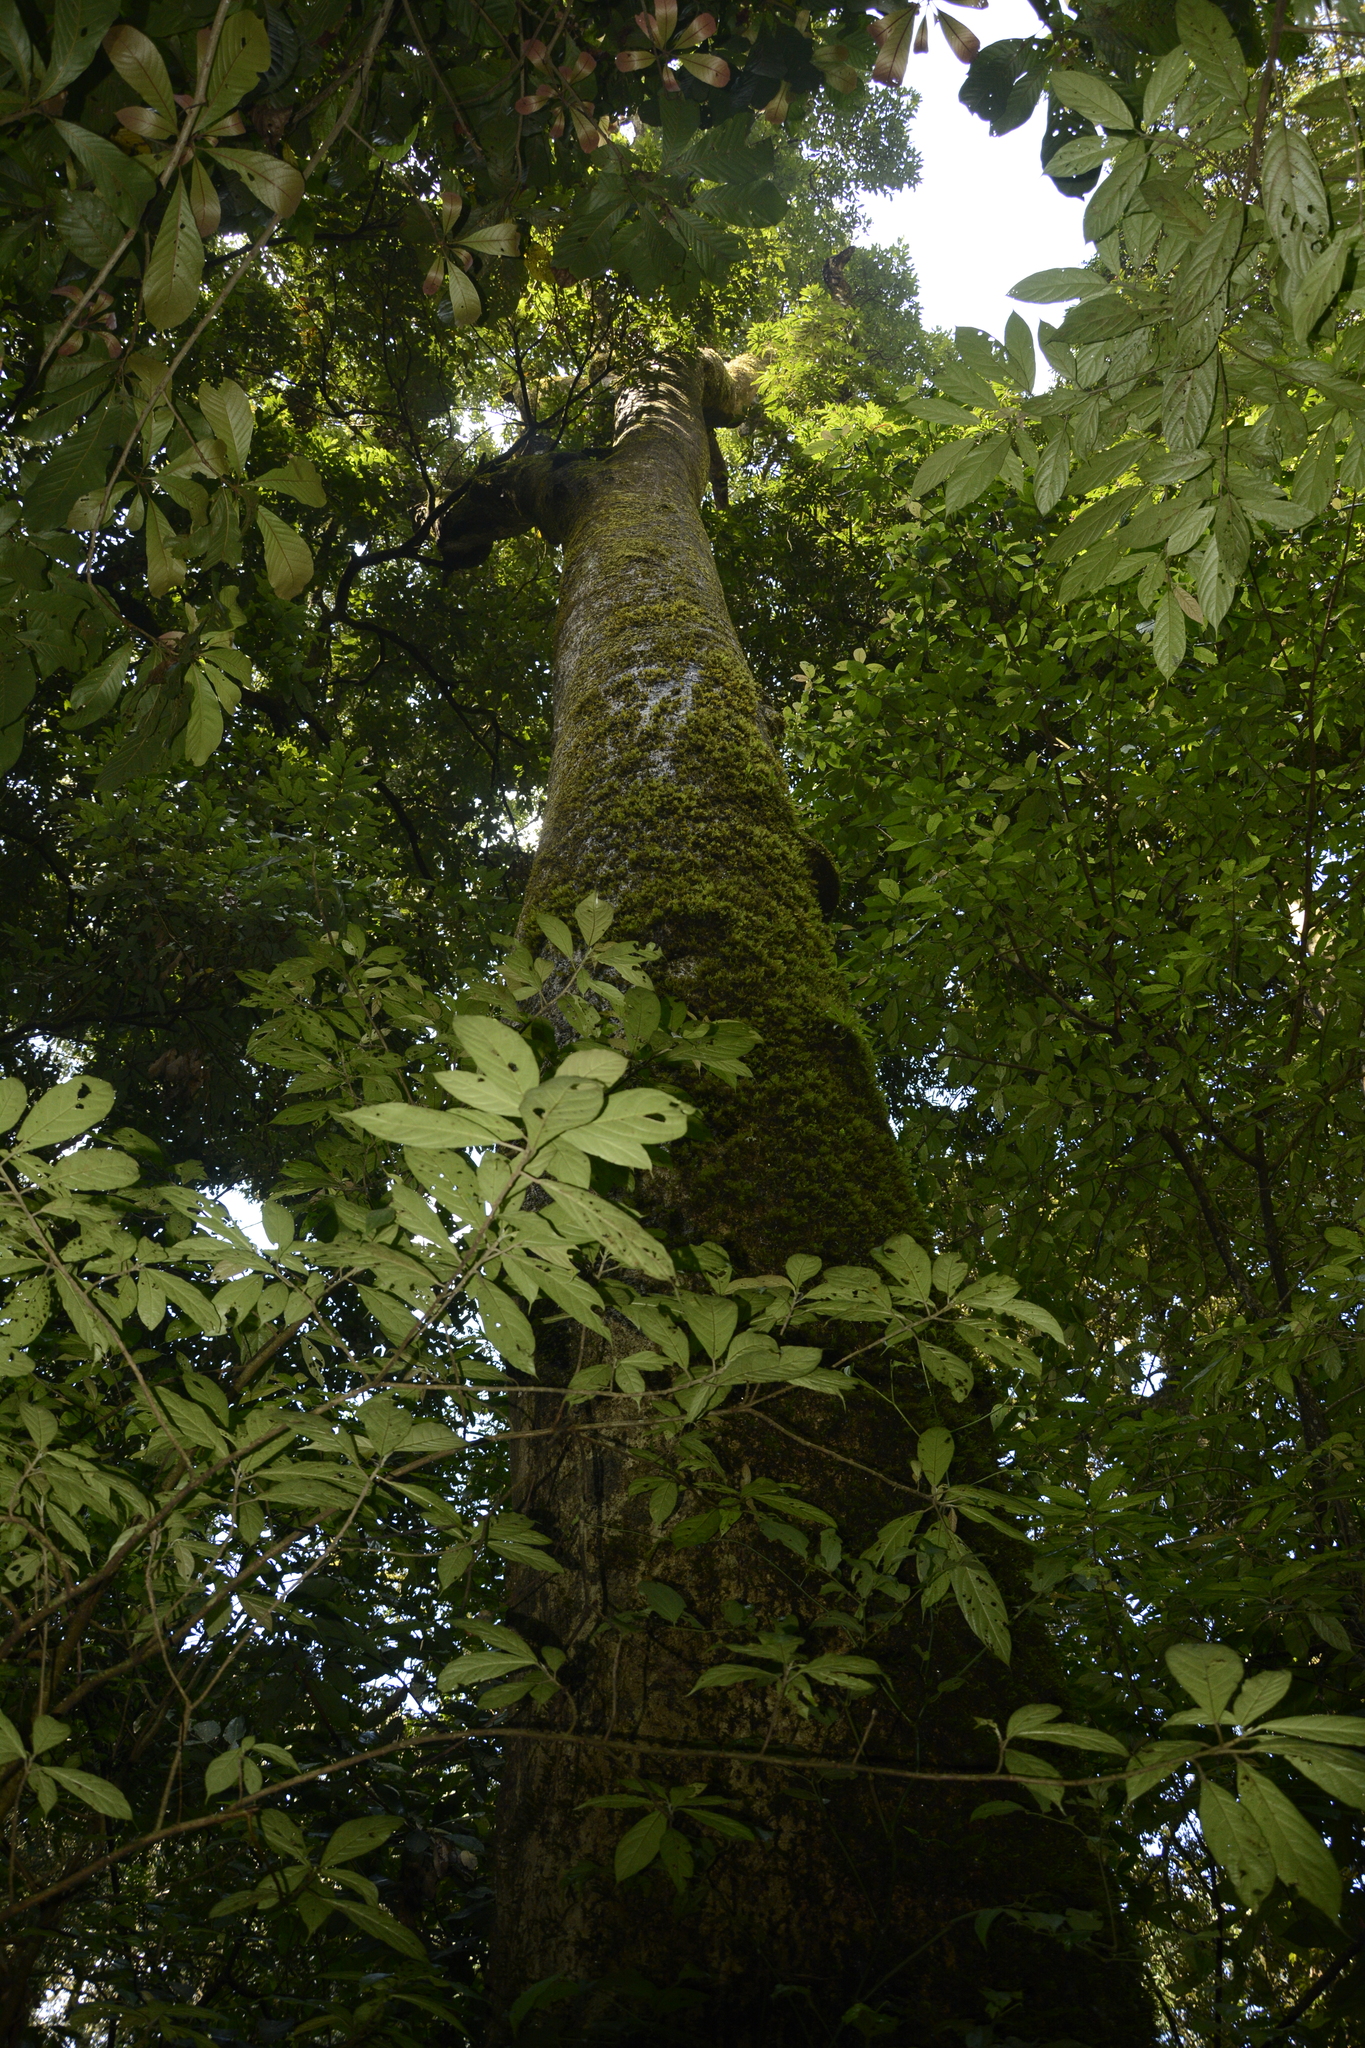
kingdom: Plantae
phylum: Tracheophyta
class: Magnoliopsida
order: Laurales
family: Lauraceae
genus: Machilus
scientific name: Machilus glaucescens
